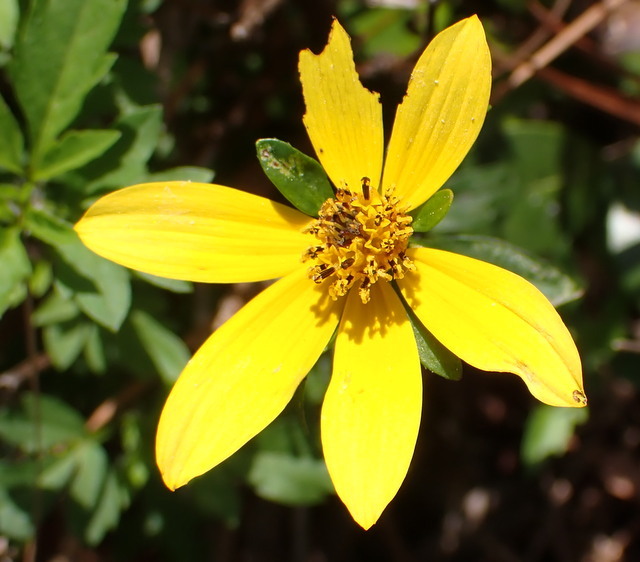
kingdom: Plantae
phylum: Tracheophyta
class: Magnoliopsida
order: Asterales
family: Asteraceae
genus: Bidens
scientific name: Bidens mitis
